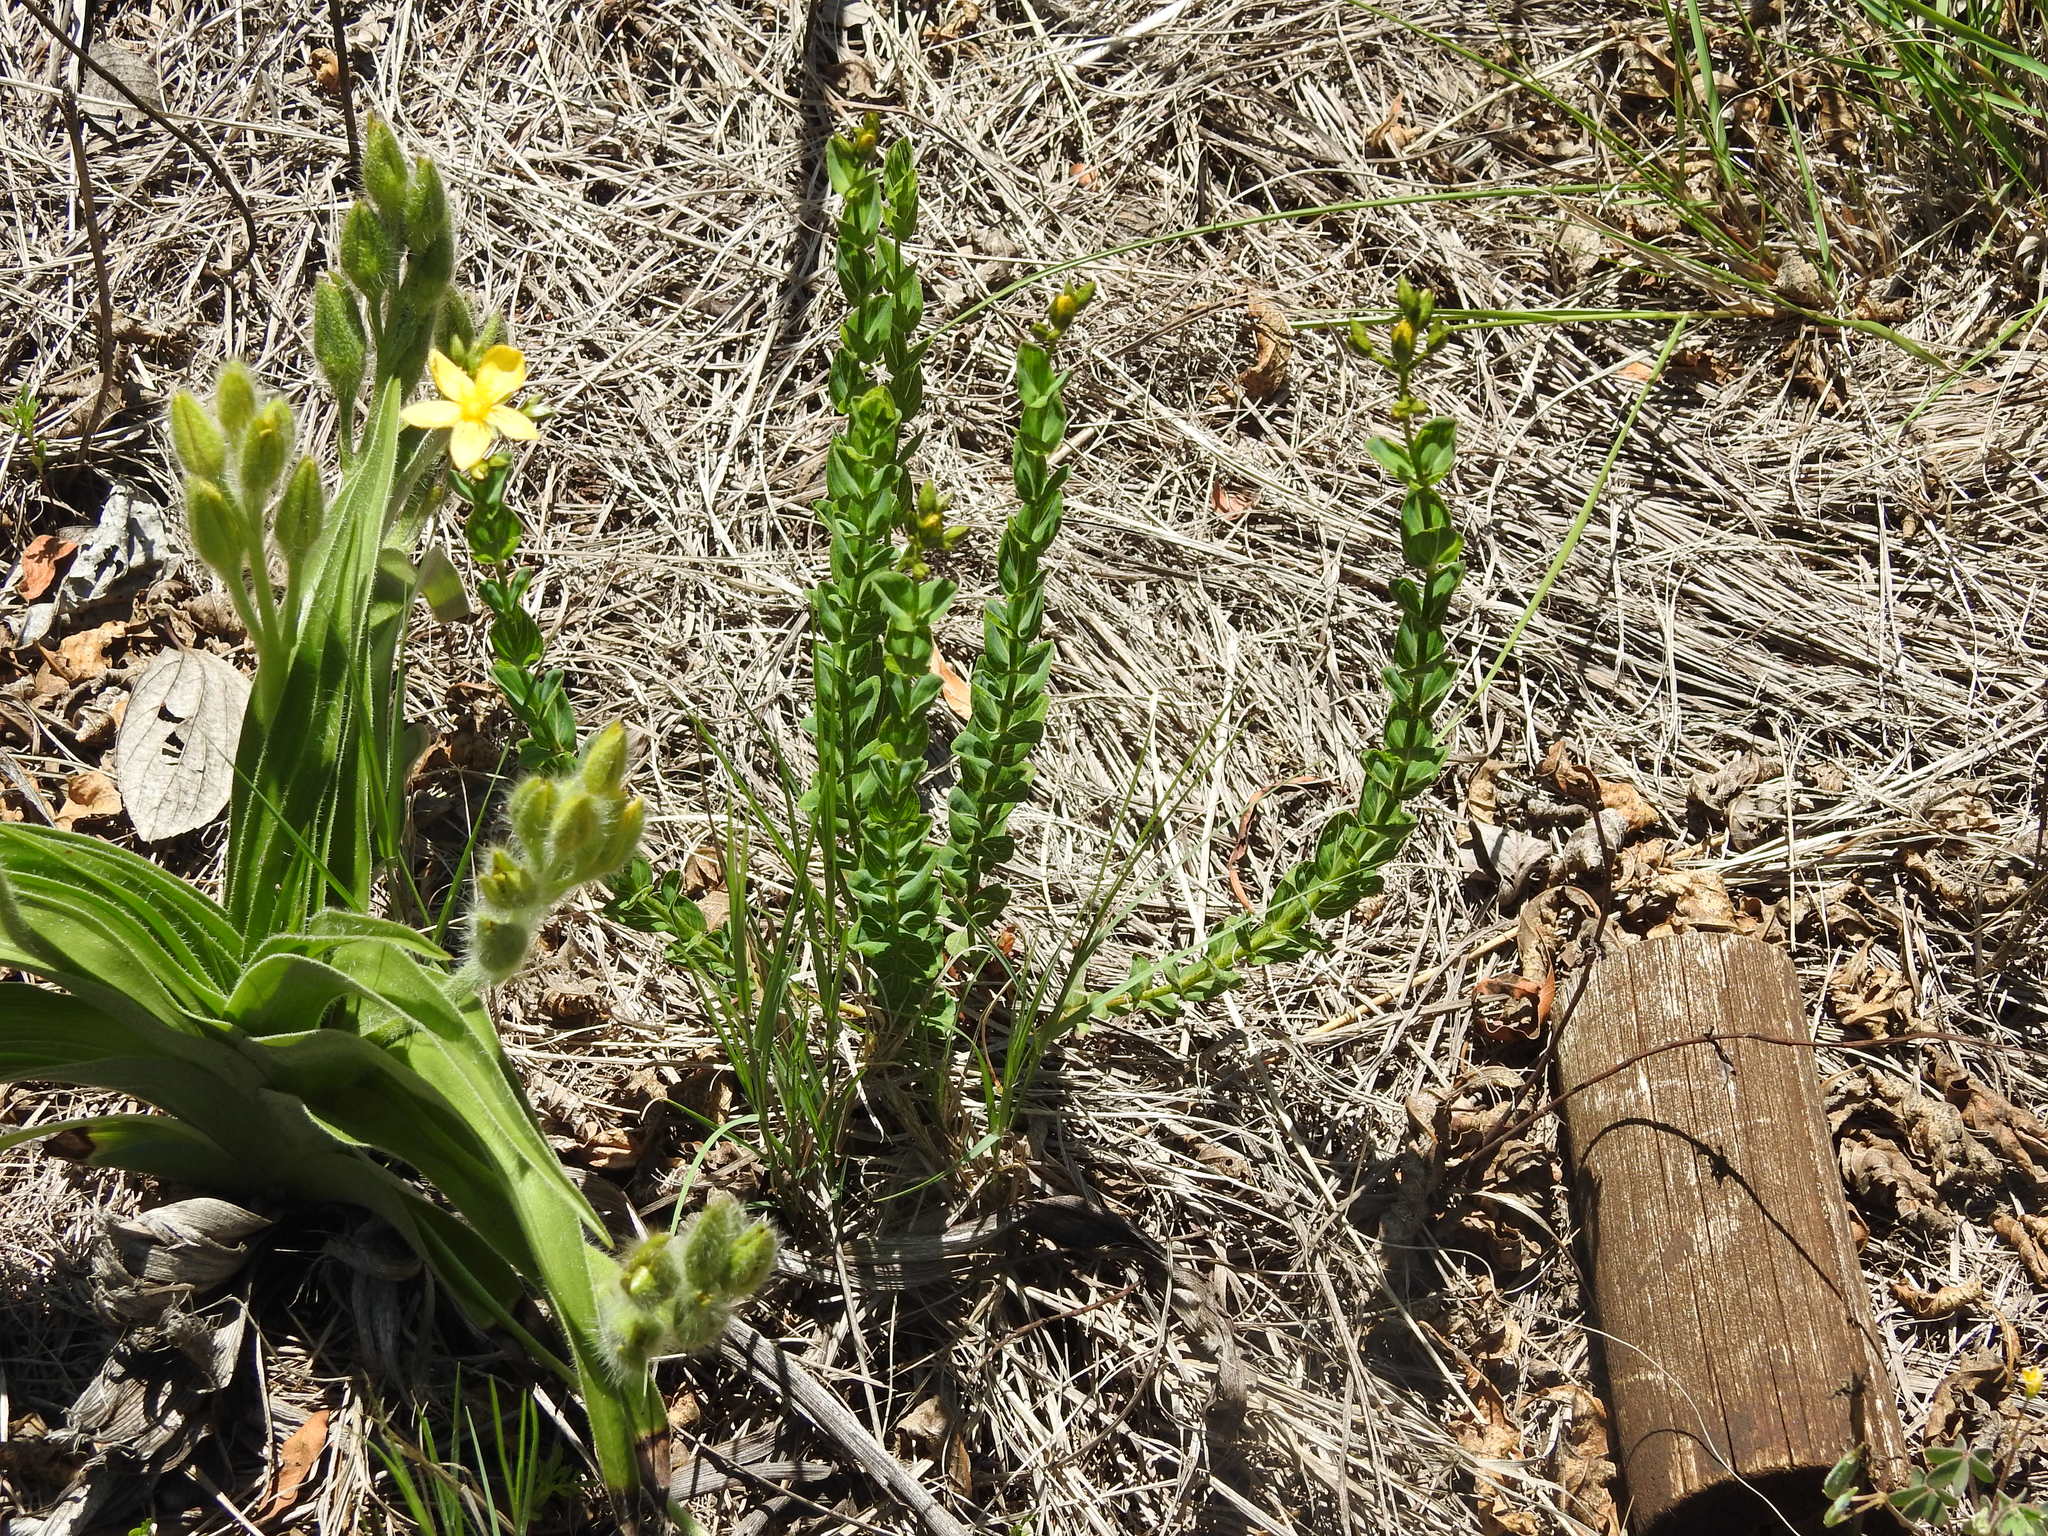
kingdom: Plantae
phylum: Tracheophyta
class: Magnoliopsida
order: Malpighiales
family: Hypericaceae
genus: Hypericum
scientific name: Hypericum aethiopicum
